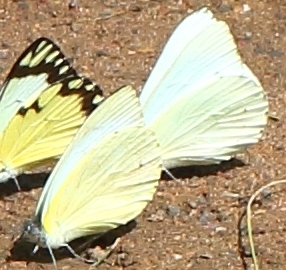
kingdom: Animalia
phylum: Arthropoda
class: Insecta
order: Lepidoptera
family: Pieridae
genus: Catopsilia
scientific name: Catopsilia florella
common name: African migrant
